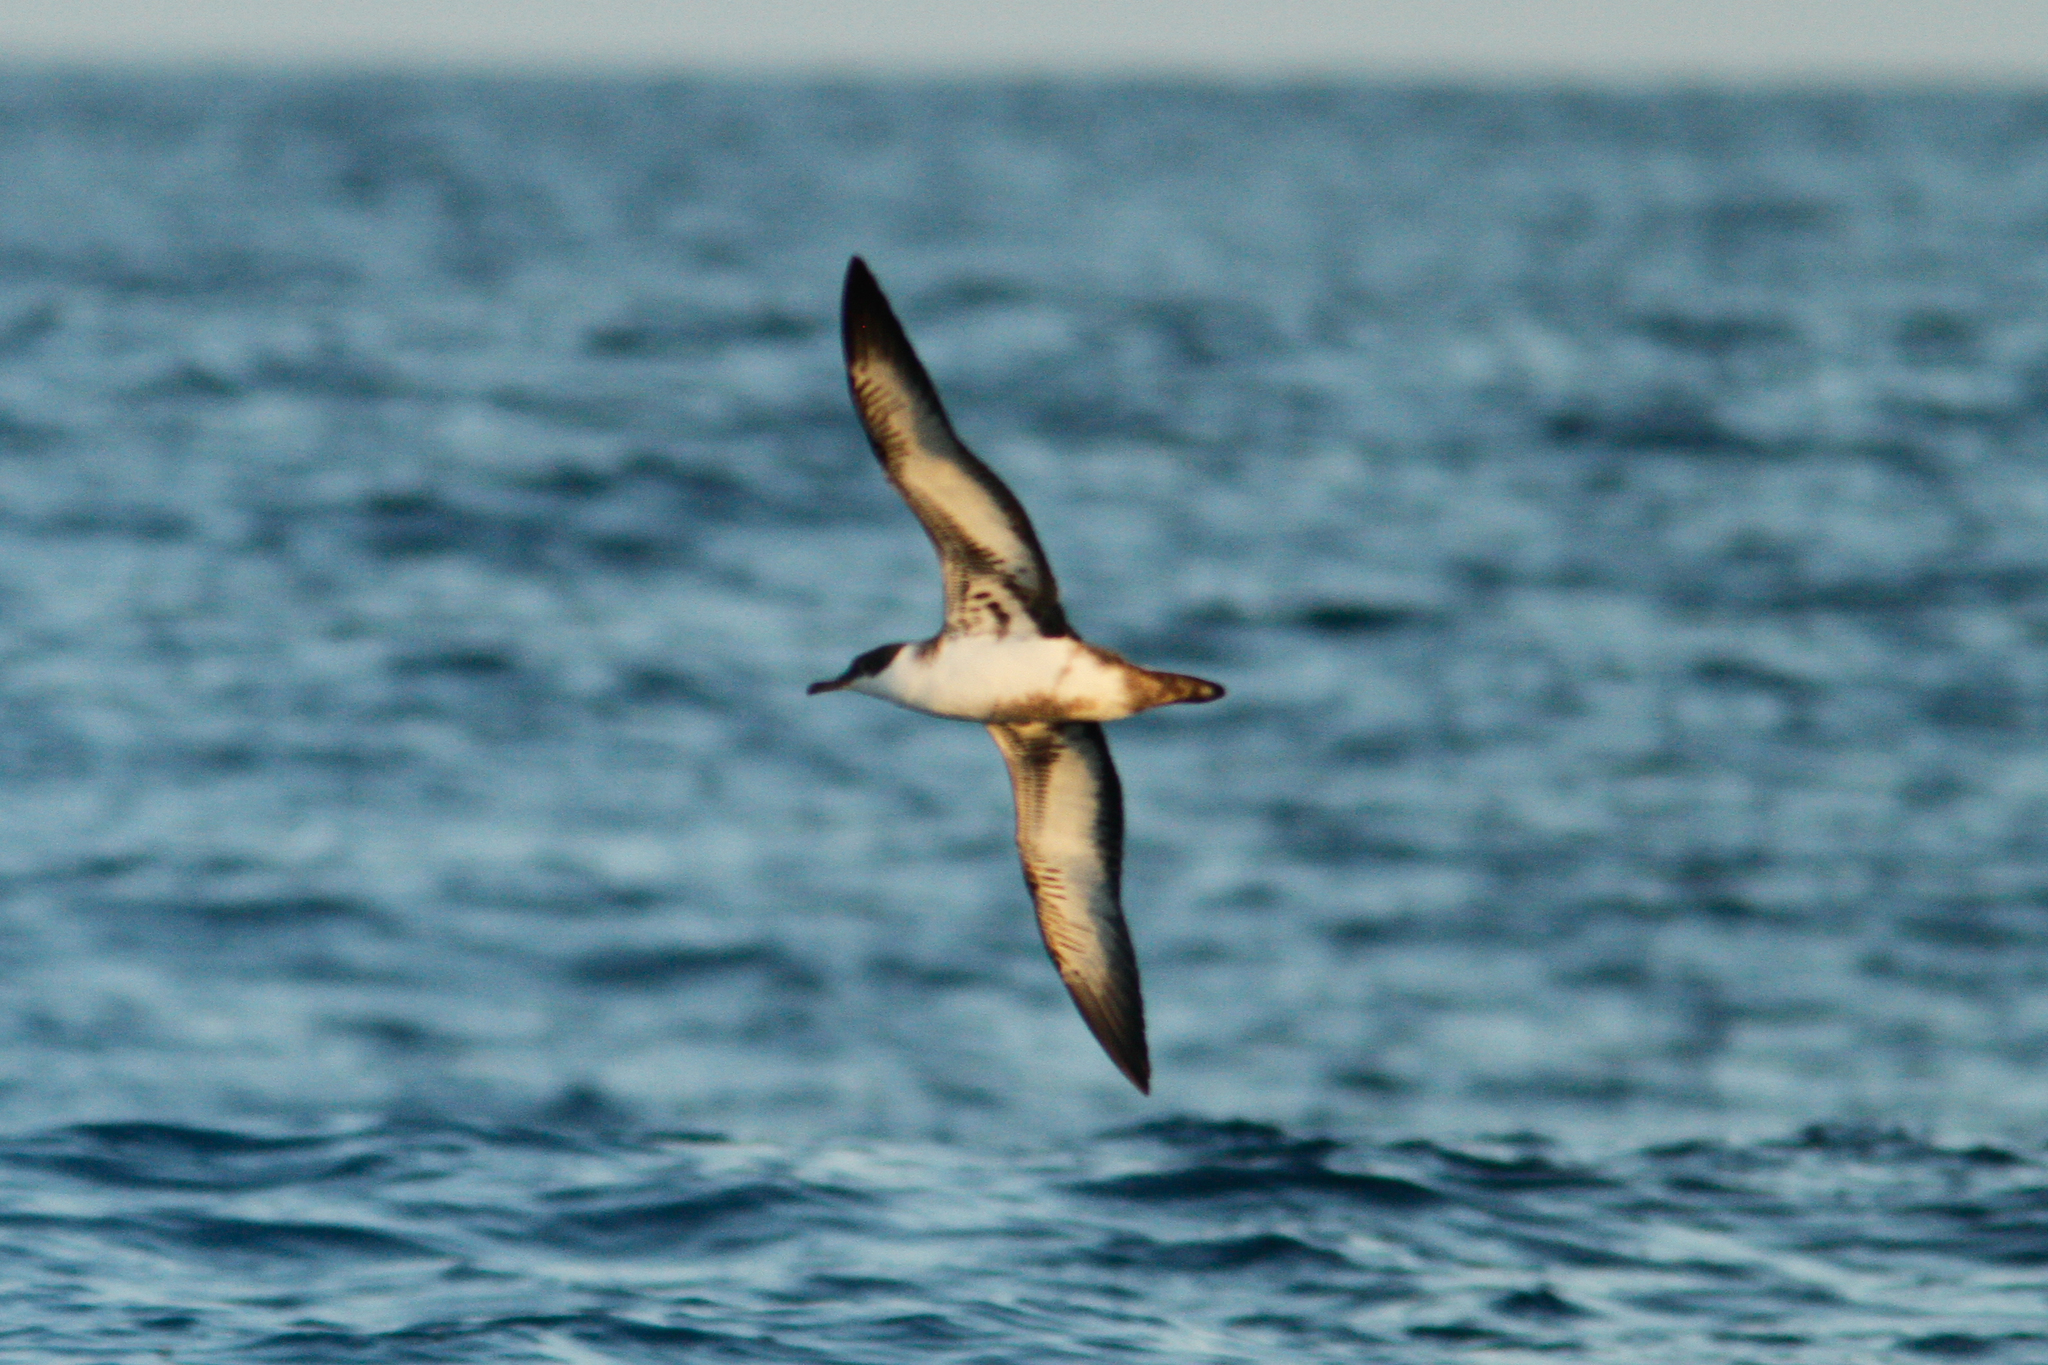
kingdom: Animalia
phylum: Chordata
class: Aves
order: Procellariiformes
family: Procellariidae
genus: Puffinus
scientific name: Puffinus gravis
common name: Great shearwater
